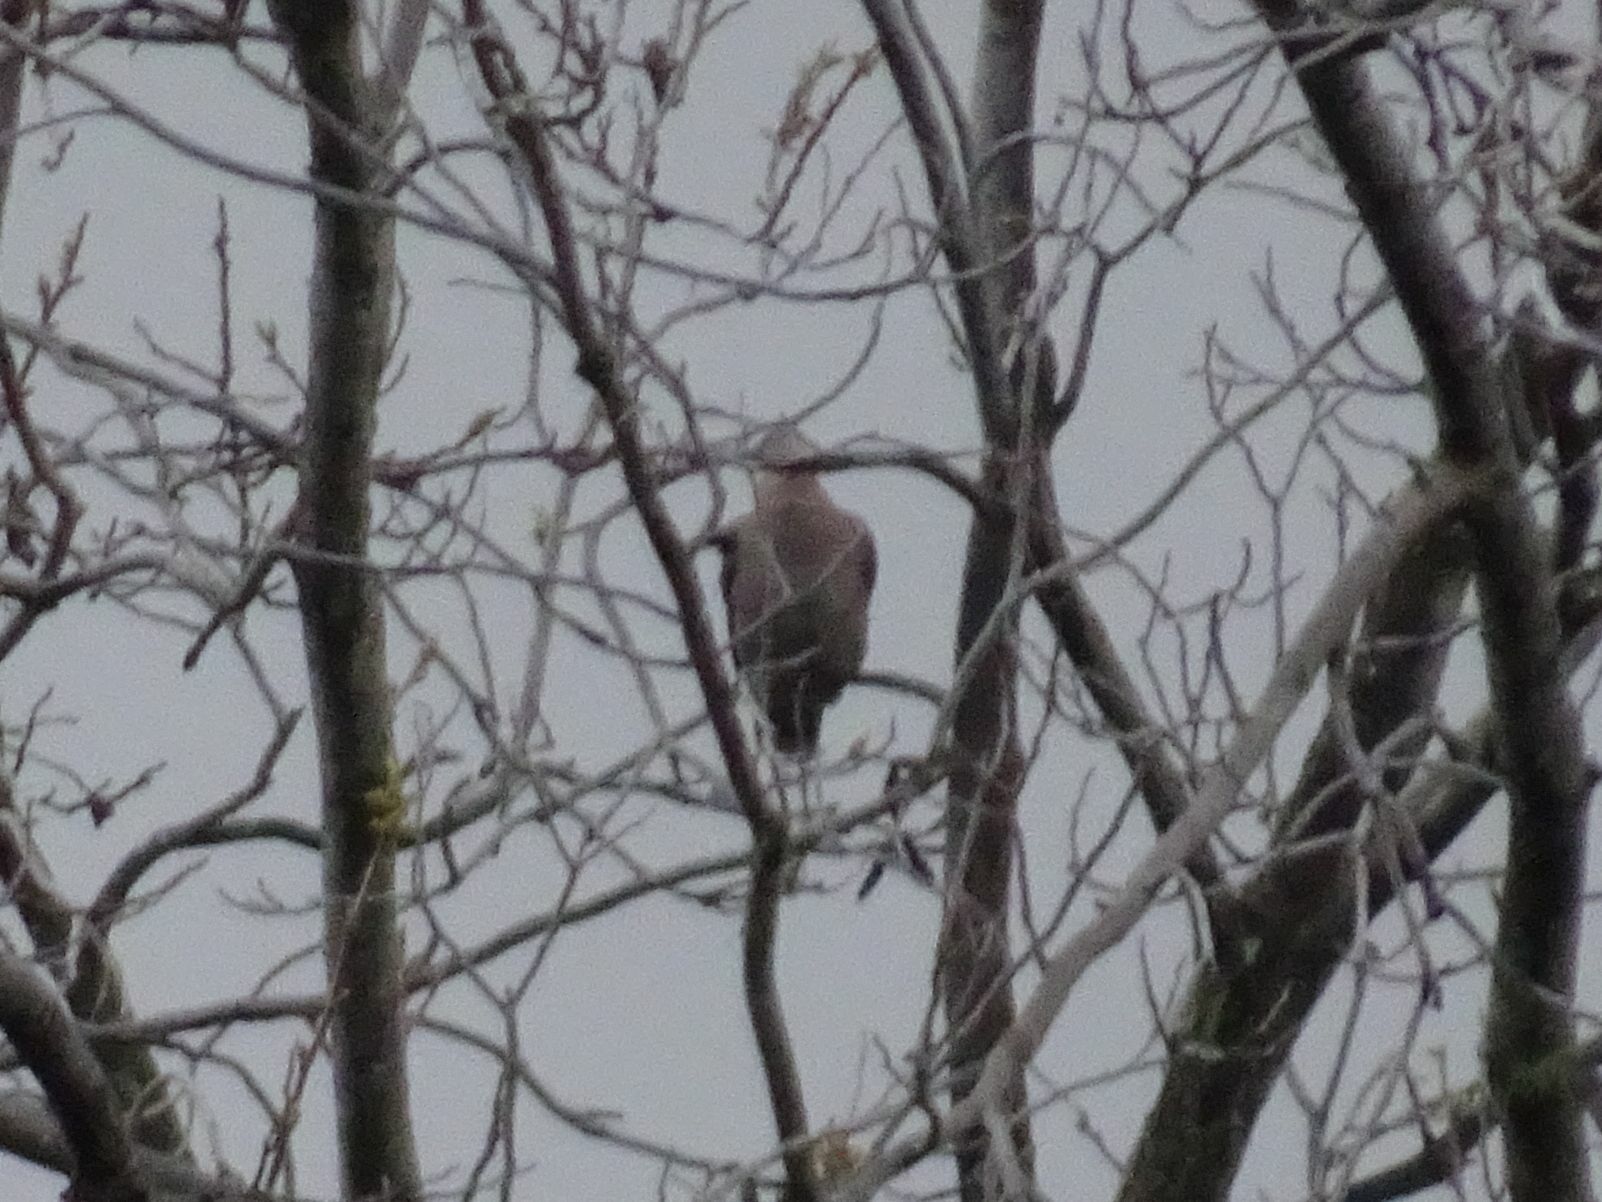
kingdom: Animalia
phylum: Chordata
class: Aves
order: Columbiformes
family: Columbidae
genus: Streptopelia
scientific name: Streptopelia semitorquata
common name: Red-eyed dove
